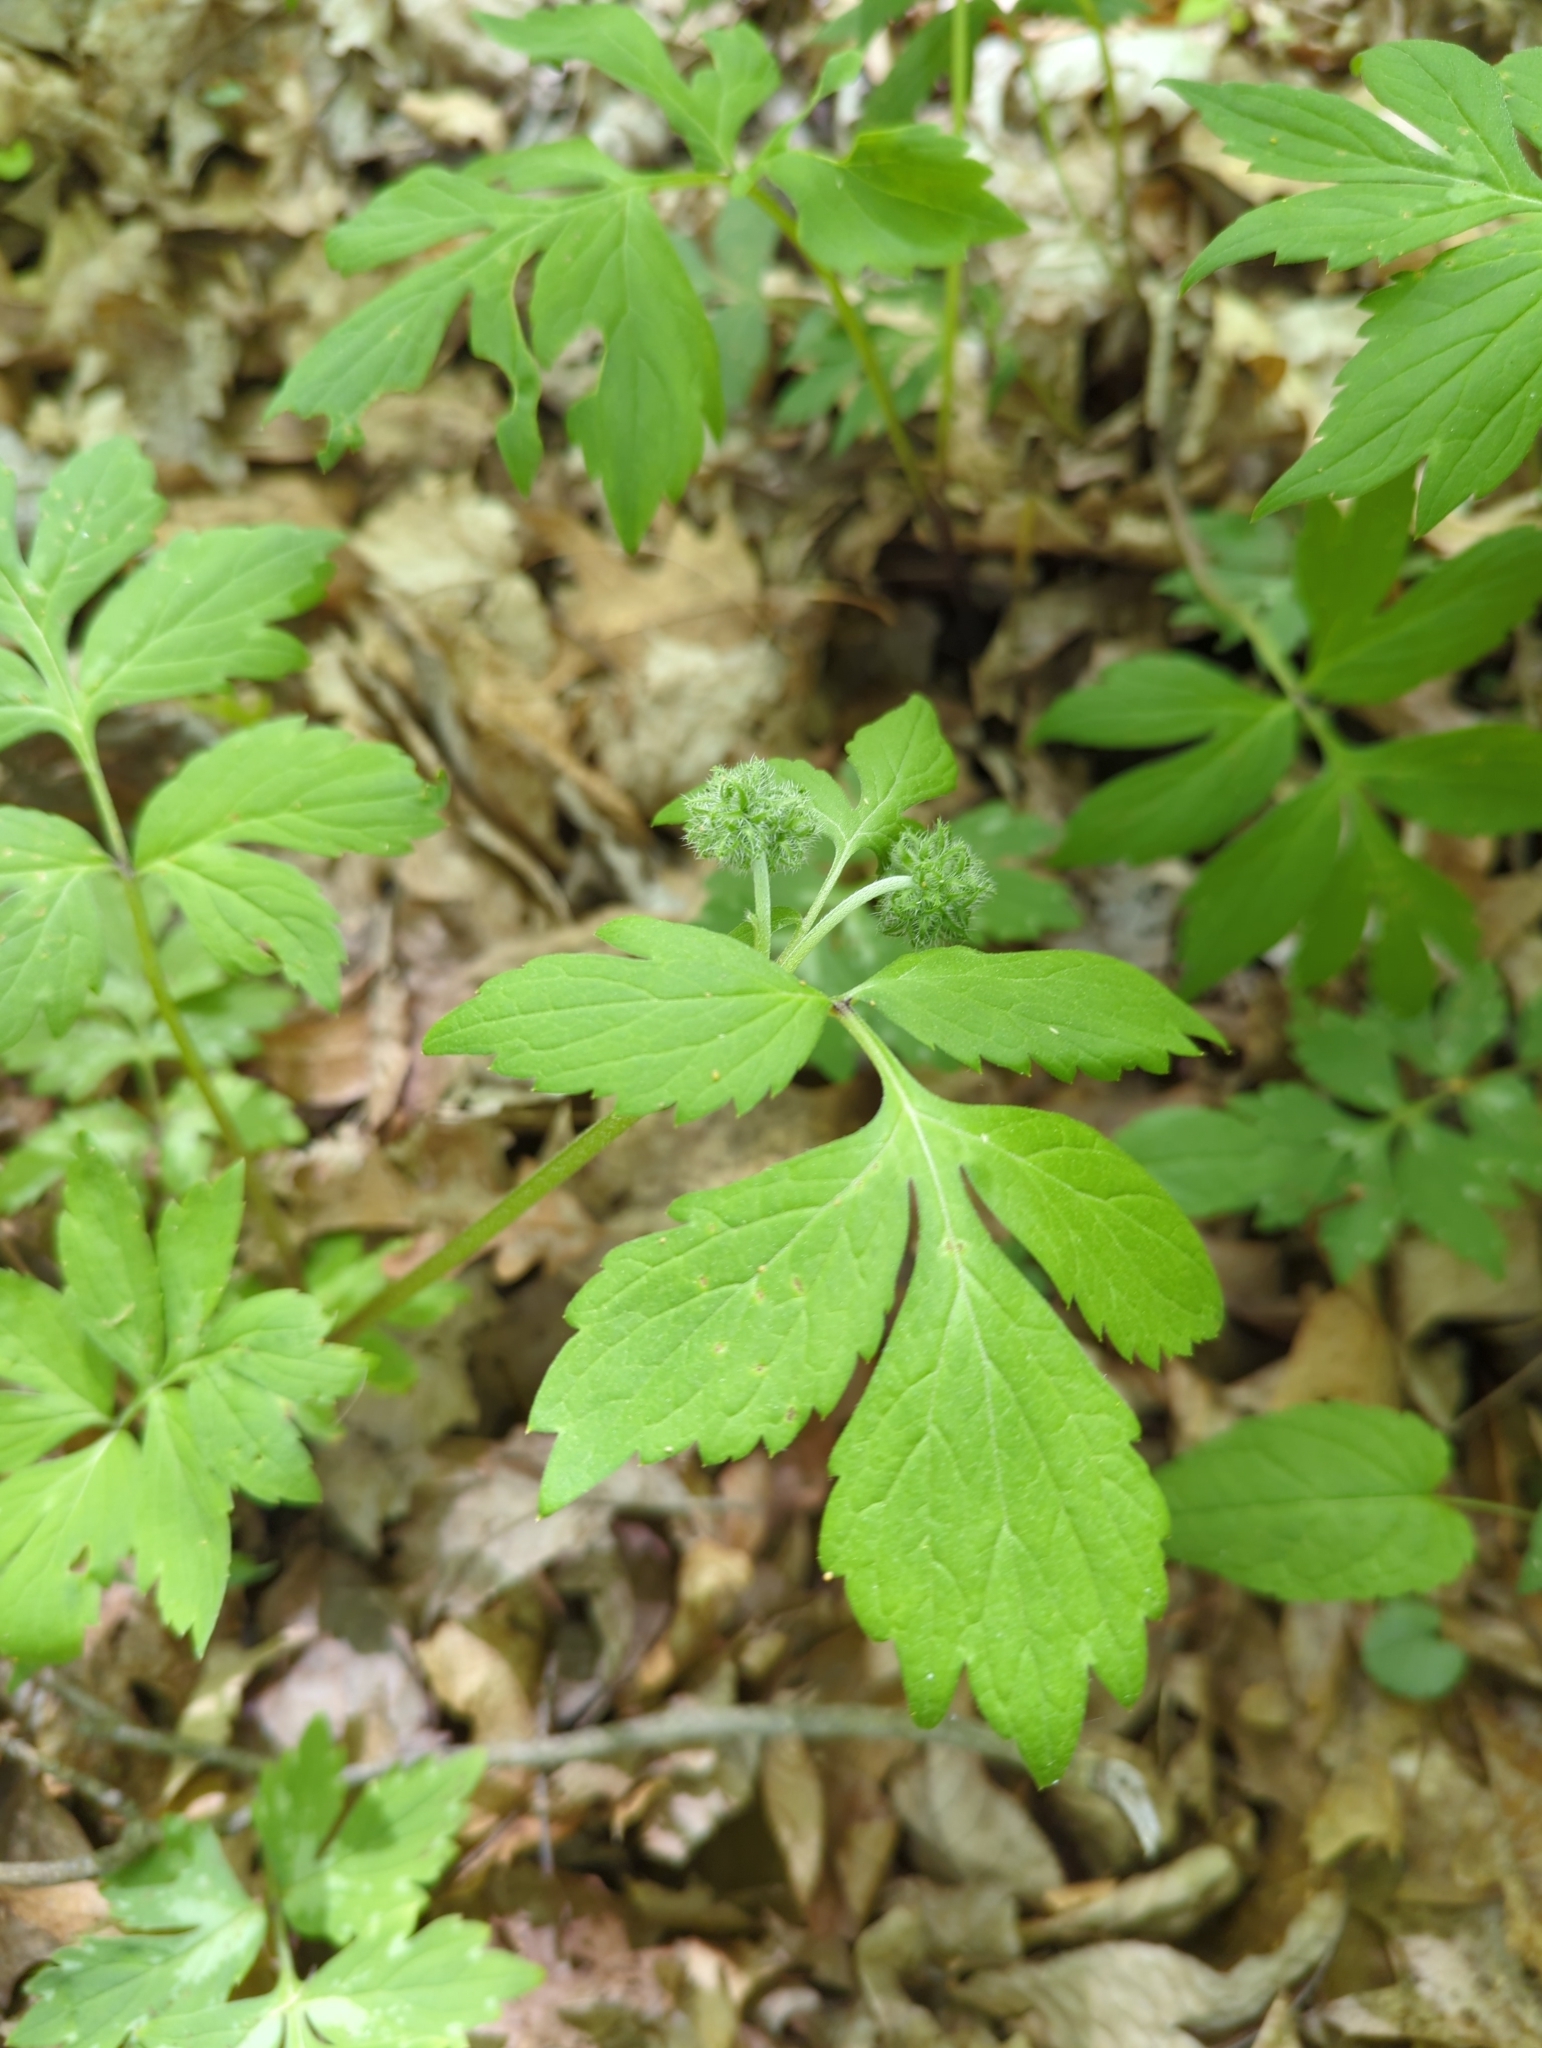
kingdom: Plantae
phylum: Tracheophyta
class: Magnoliopsida
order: Boraginales
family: Hydrophyllaceae
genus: Hydrophyllum
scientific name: Hydrophyllum virginianum
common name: Virginia waterleaf
